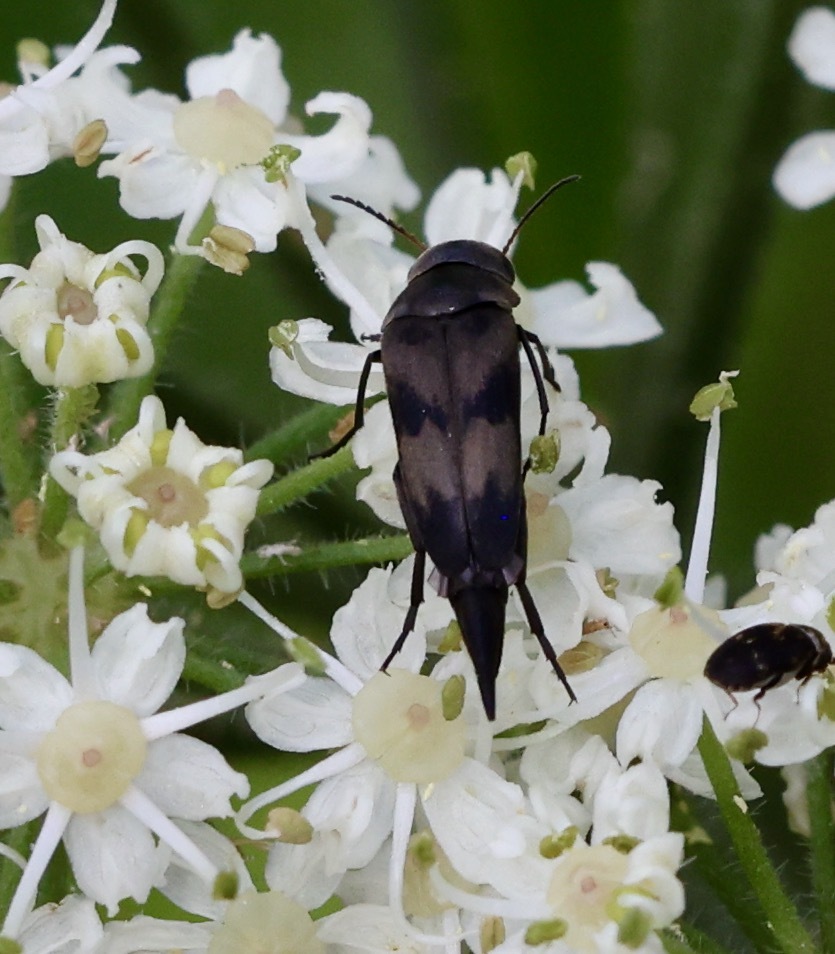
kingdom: Animalia
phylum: Arthropoda
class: Insecta
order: Coleoptera
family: Mordellidae
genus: Variimorda
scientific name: Variimorda villosa
